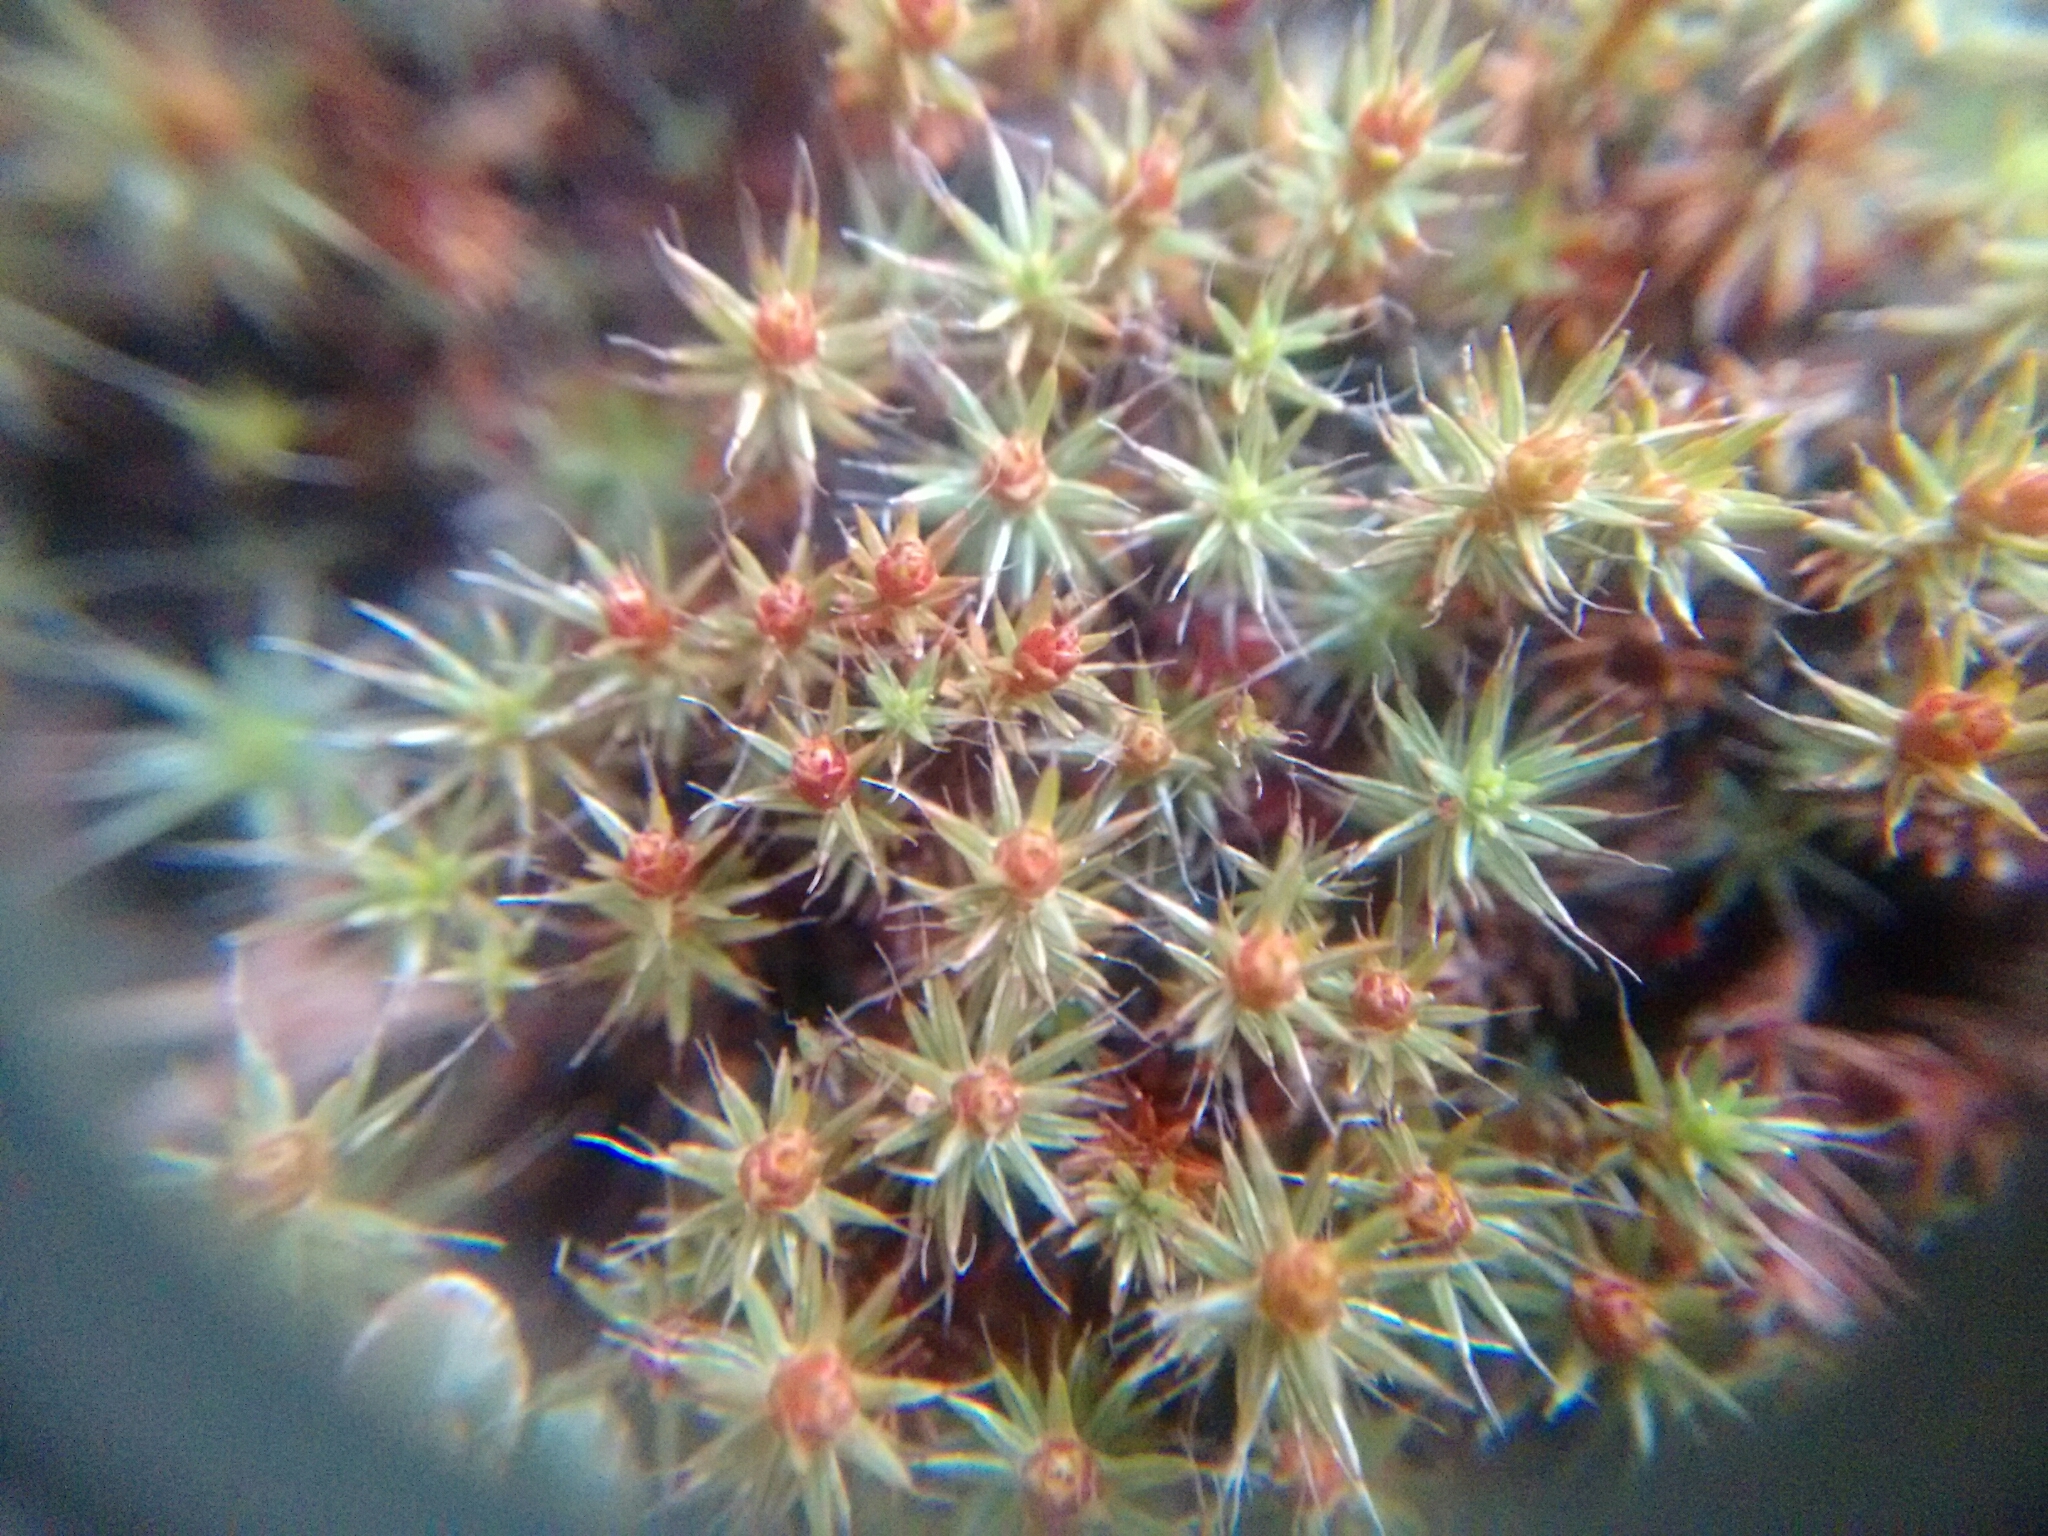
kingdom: Plantae
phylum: Bryophyta
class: Polytrichopsida
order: Polytrichales
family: Polytrichaceae
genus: Polytrichum
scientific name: Polytrichum piliferum
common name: Bristly haircap
